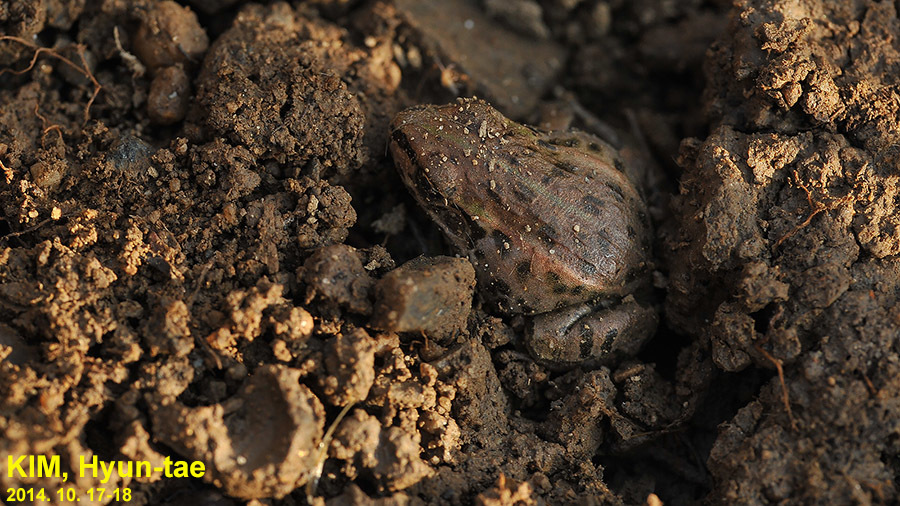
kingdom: Animalia
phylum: Chordata
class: Amphibia
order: Anura
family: Ranidae
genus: Pelophylax
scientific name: Pelophylax nigromaculatus
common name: Black-spotted pond frog
